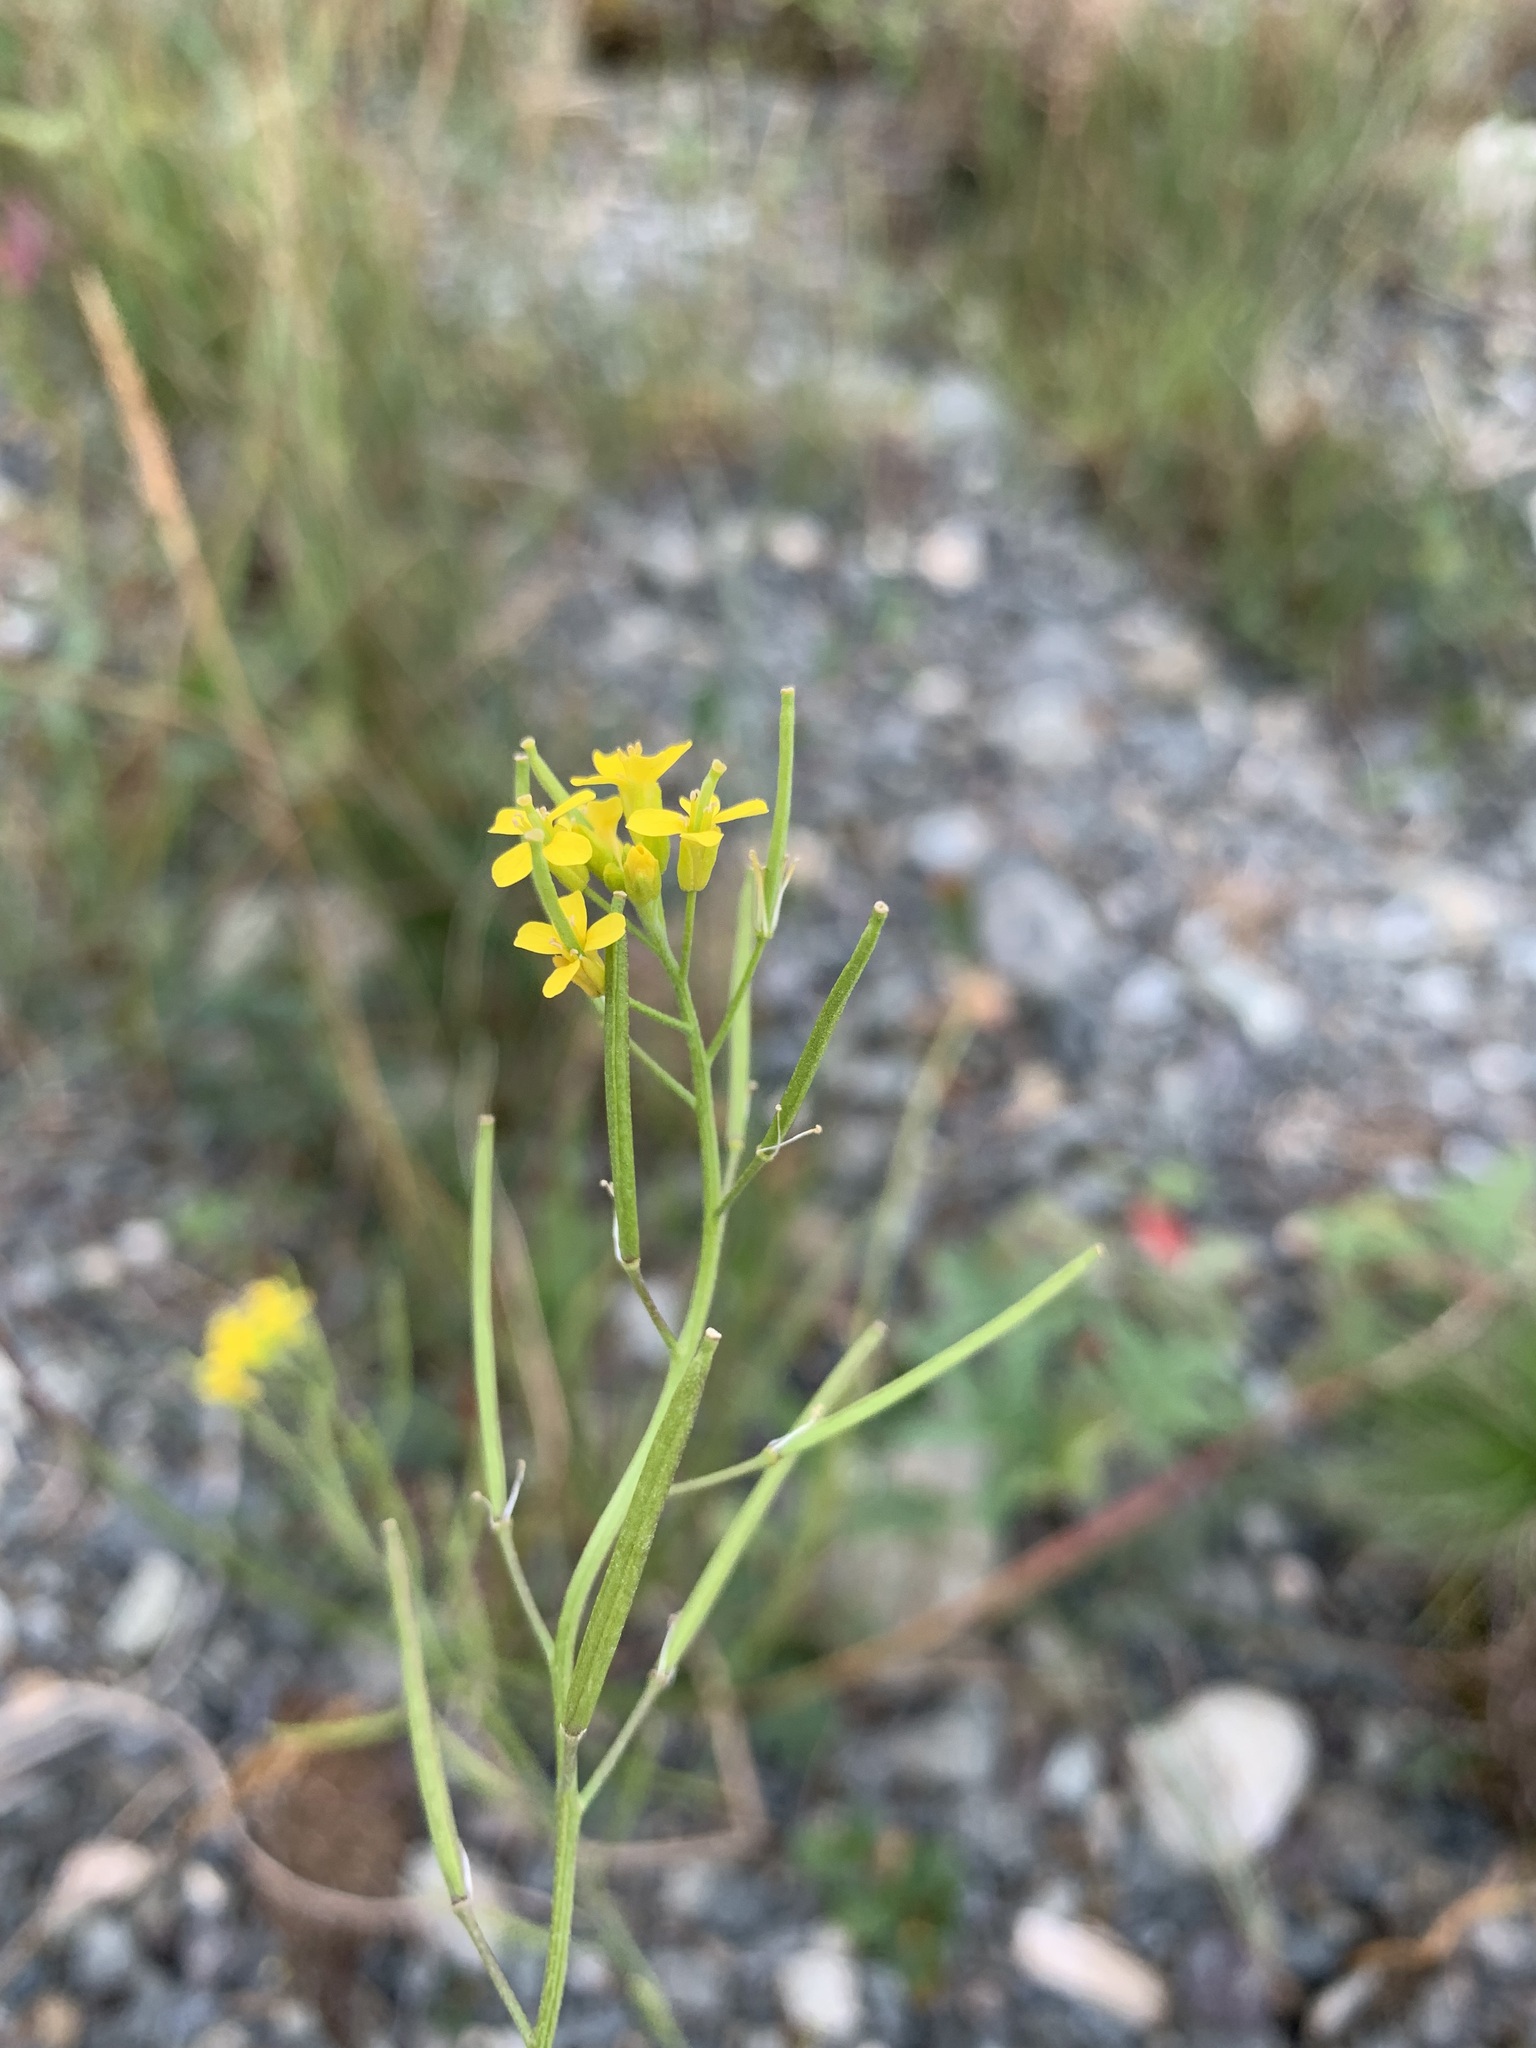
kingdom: Plantae
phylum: Tracheophyta
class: Magnoliopsida
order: Brassicales
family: Brassicaceae
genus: Erysimum
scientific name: Erysimum cheiranthoides
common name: Treacle mustard
